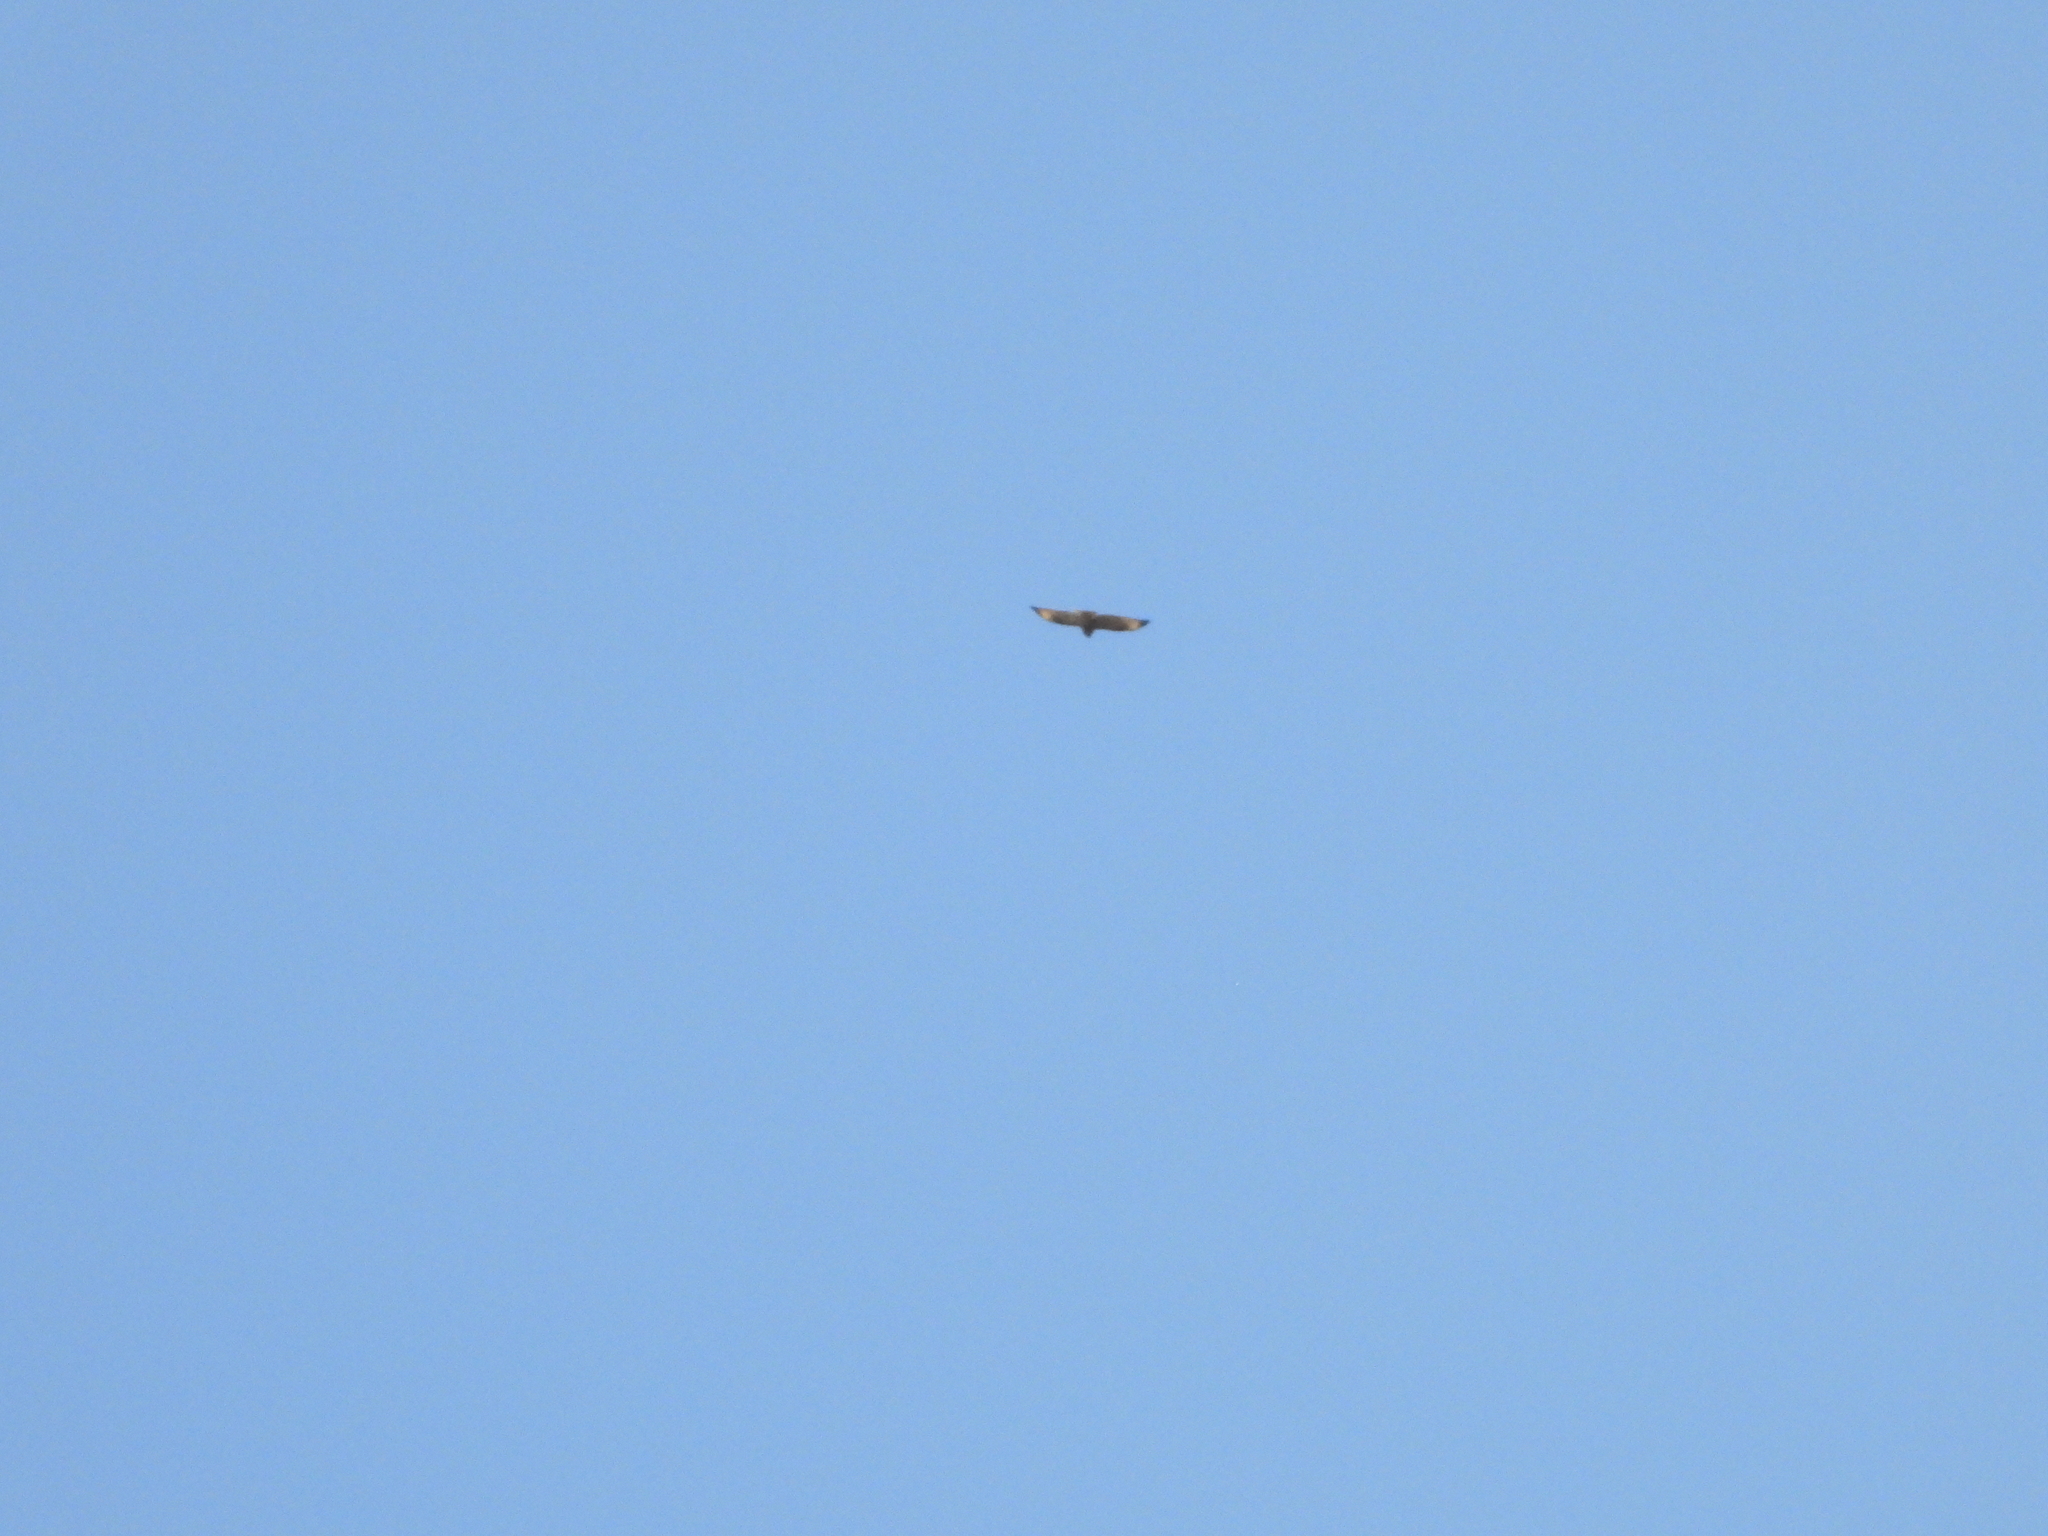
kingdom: Animalia
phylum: Chordata
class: Aves
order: Accipitriformes
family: Accipitridae
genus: Buteo
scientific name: Buteo japonicus
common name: Eastern buzzard
